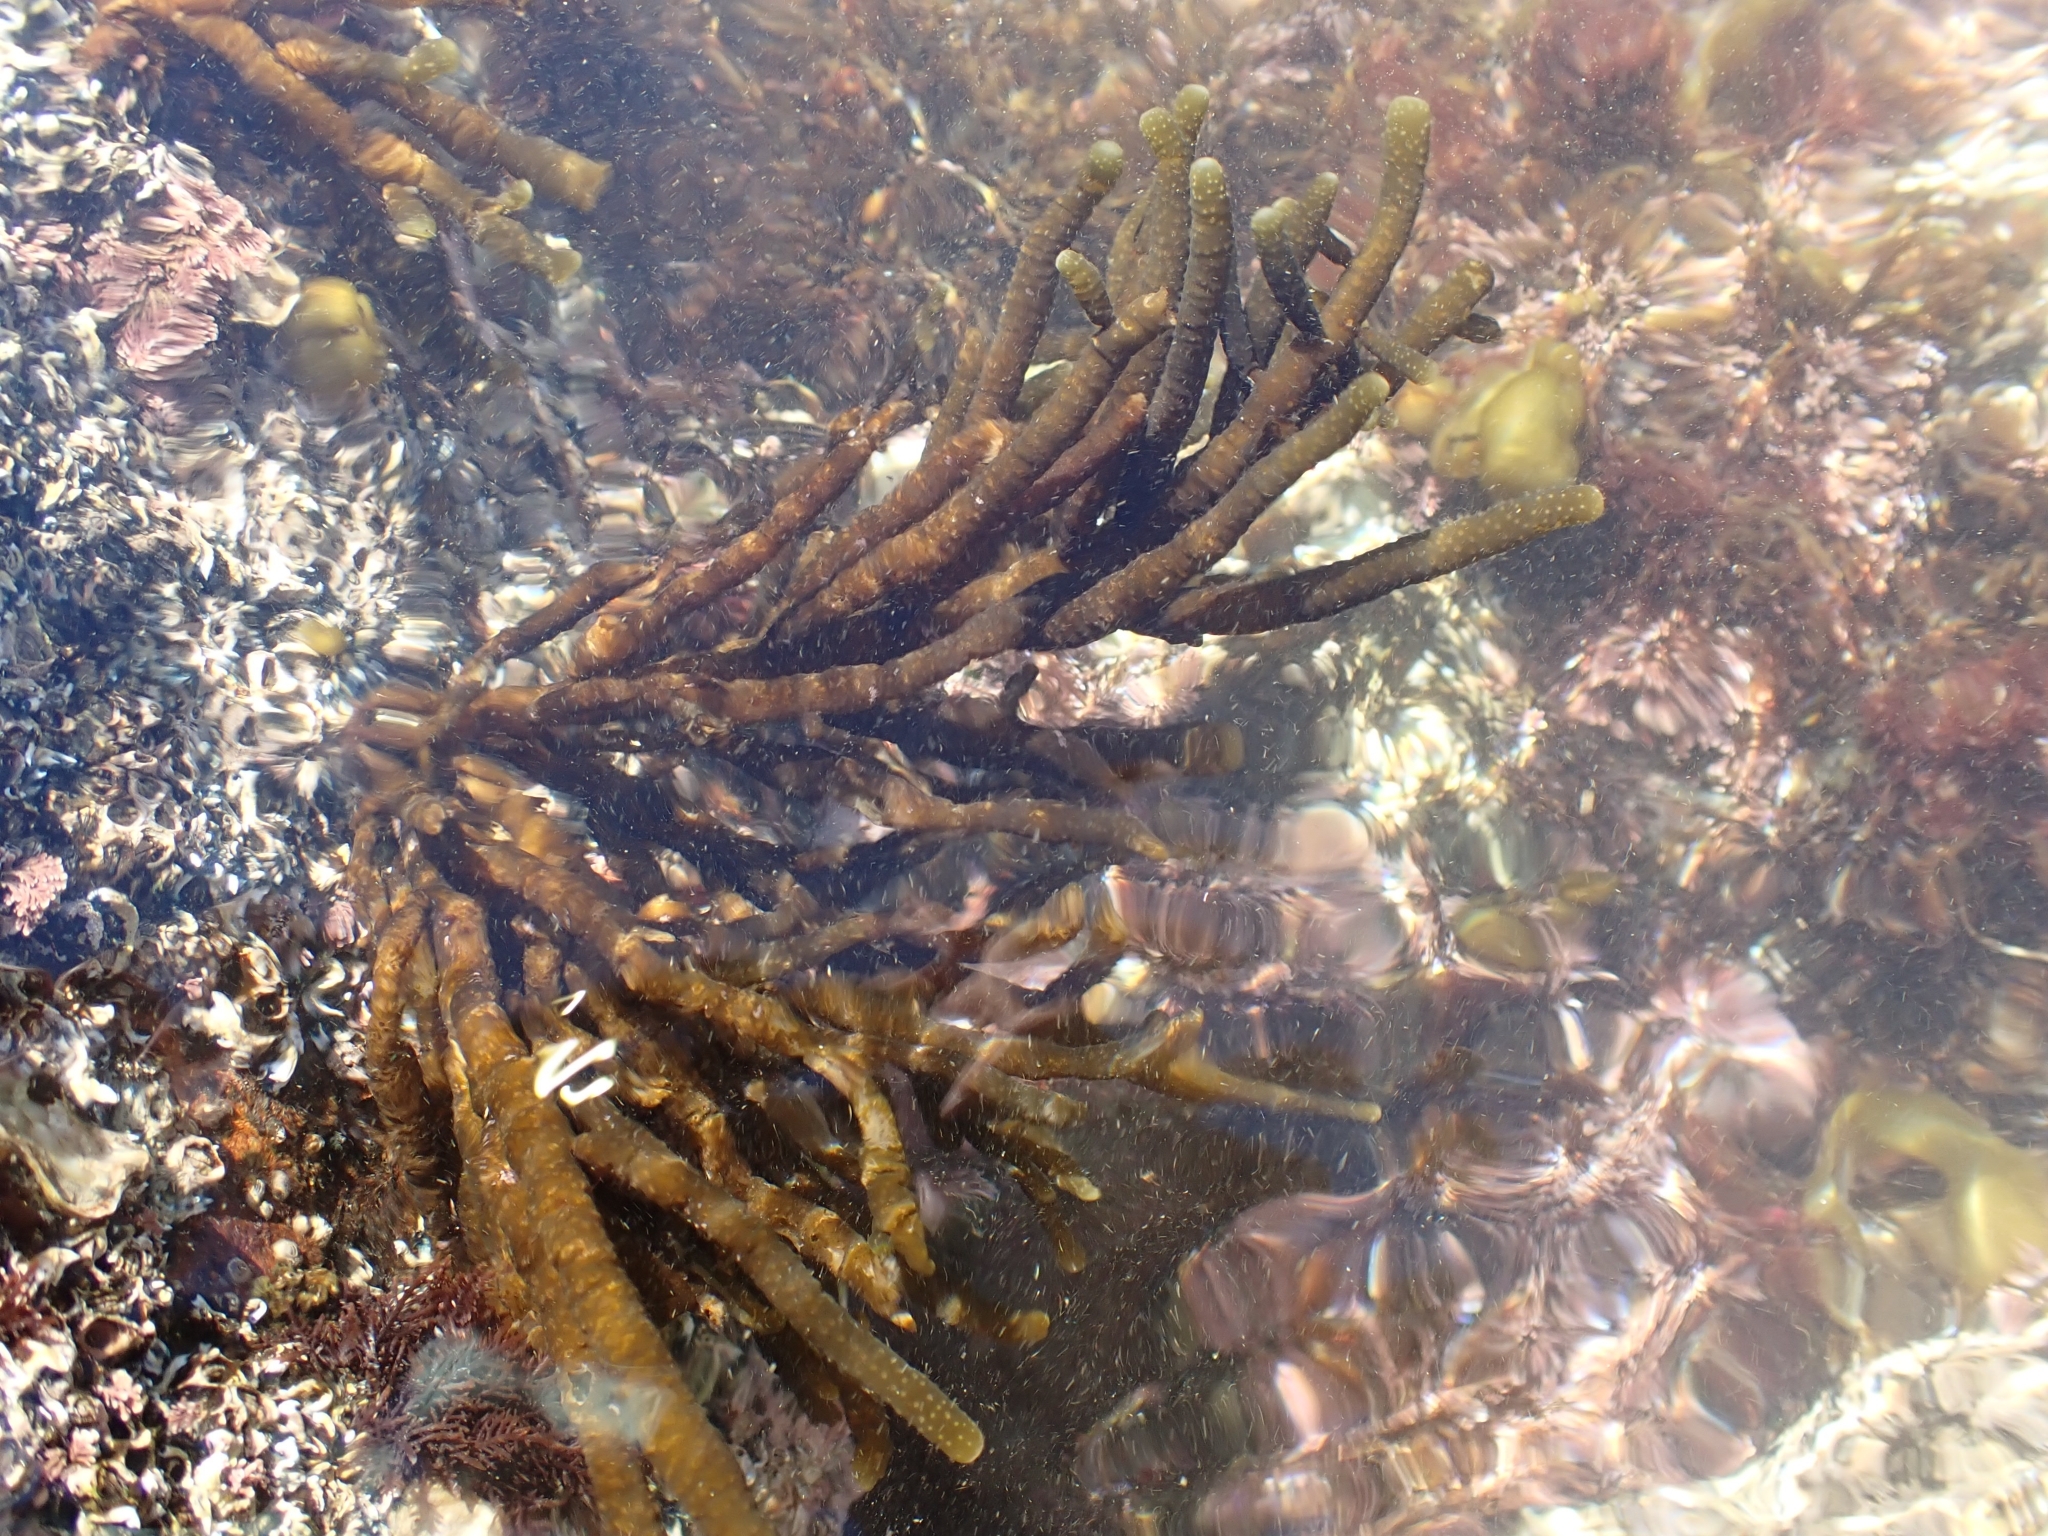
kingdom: Chromista
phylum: Ochrophyta
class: Phaeophyceae
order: Scytothamnales
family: Splachnidiaceae
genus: Splachnidium
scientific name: Splachnidium rugosum
